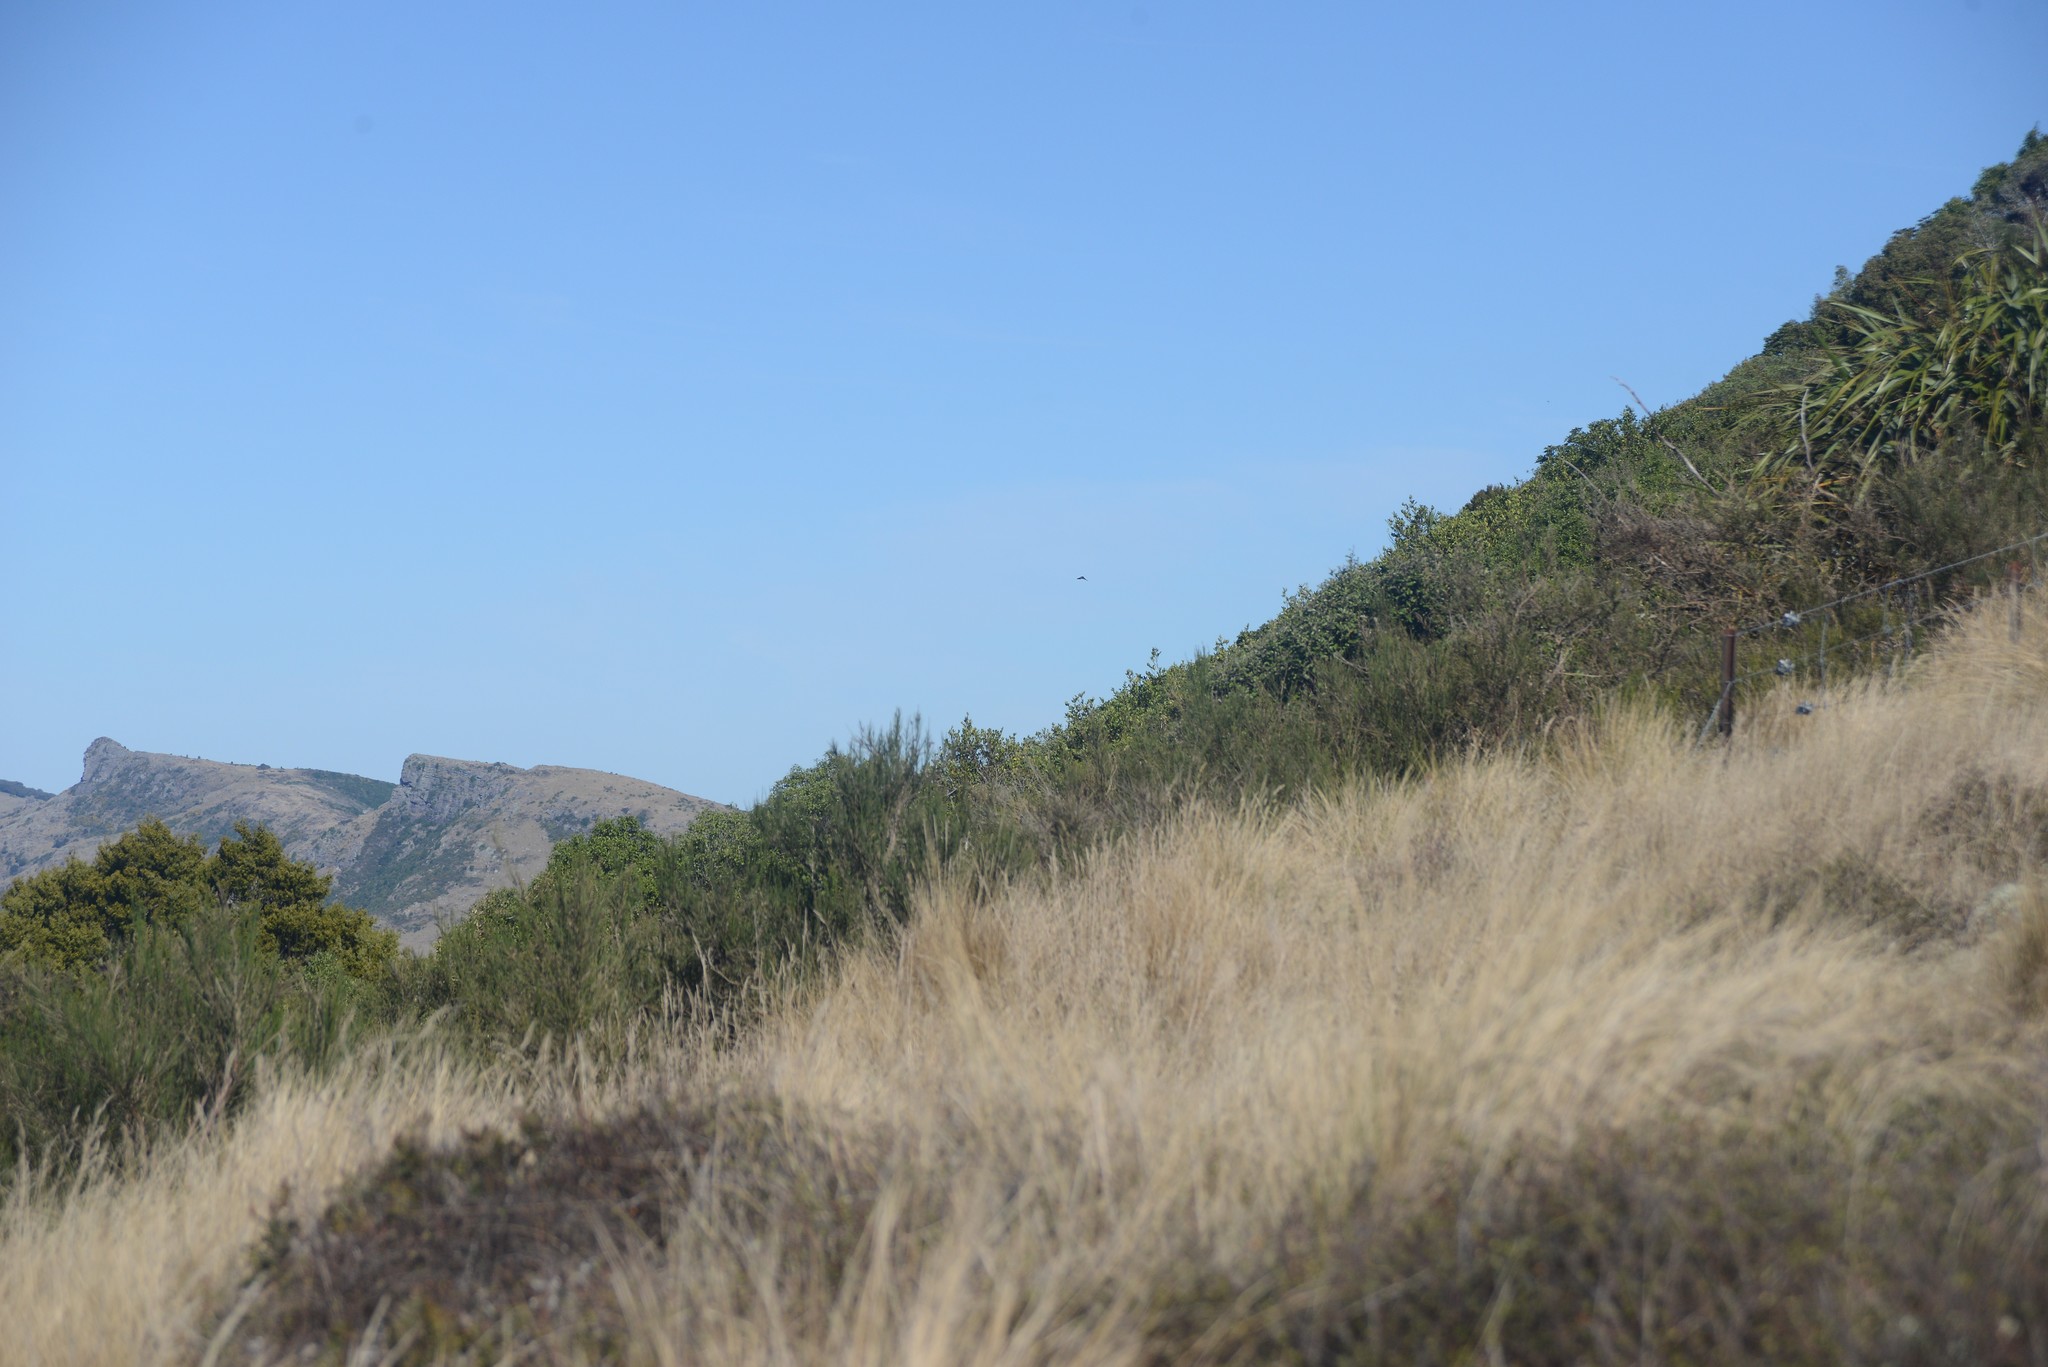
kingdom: Animalia
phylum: Chordata
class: Aves
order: Passeriformes
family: Rhipiduridae
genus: Rhipidura
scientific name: Rhipidura fuliginosa
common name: New zealand fantail
